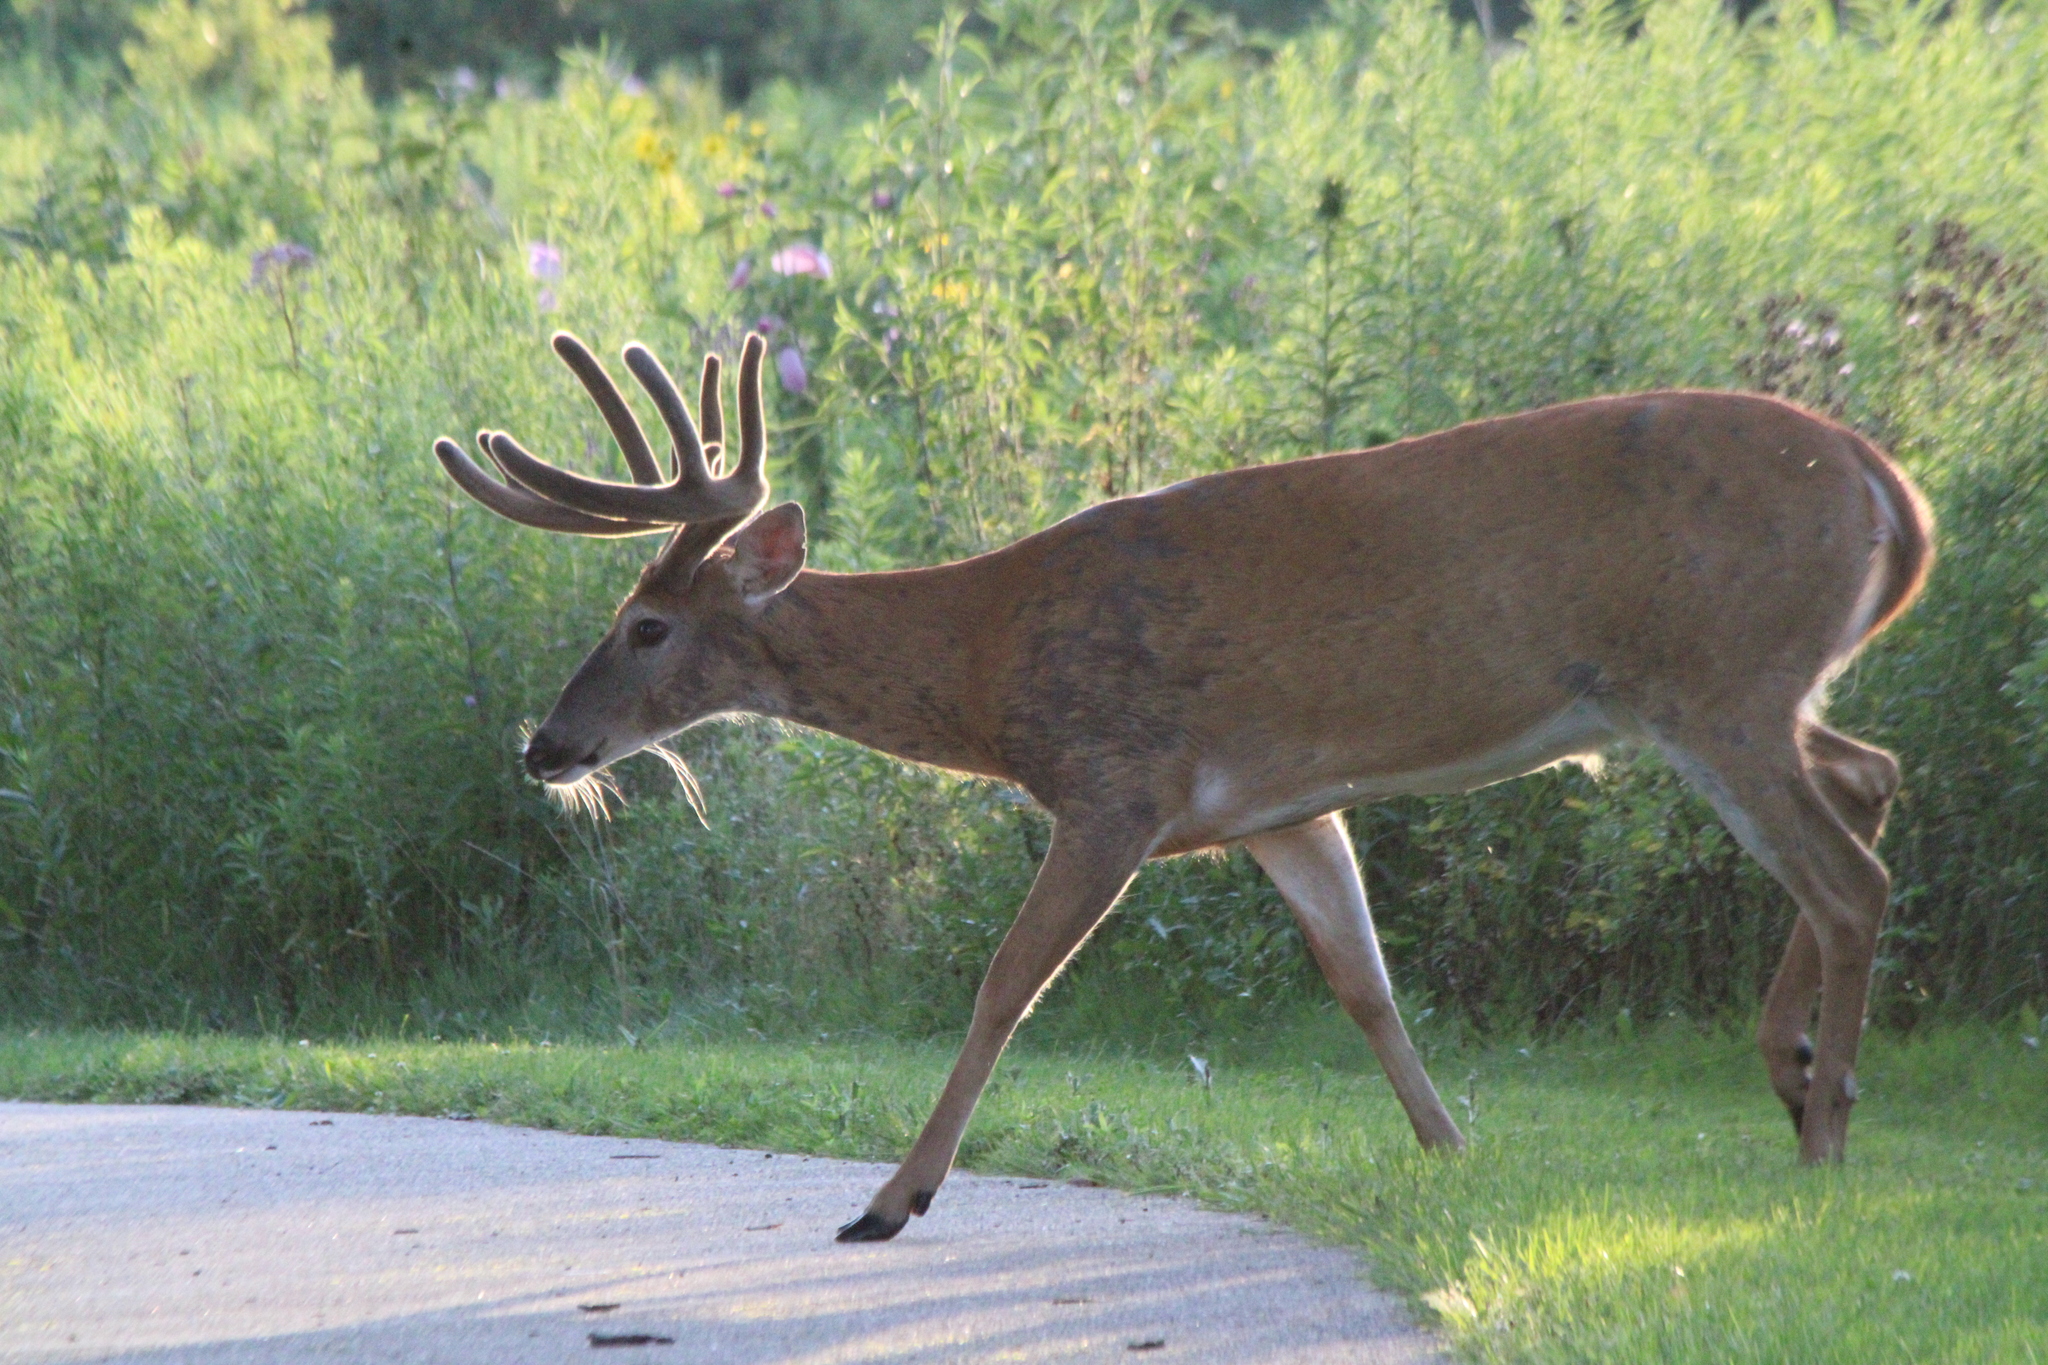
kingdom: Animalia
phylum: Chordata
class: Mammalia
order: Artiodactyla
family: Cervidae
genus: Odocoileus
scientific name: Odocoileus virginianus
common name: White-tailed deer
